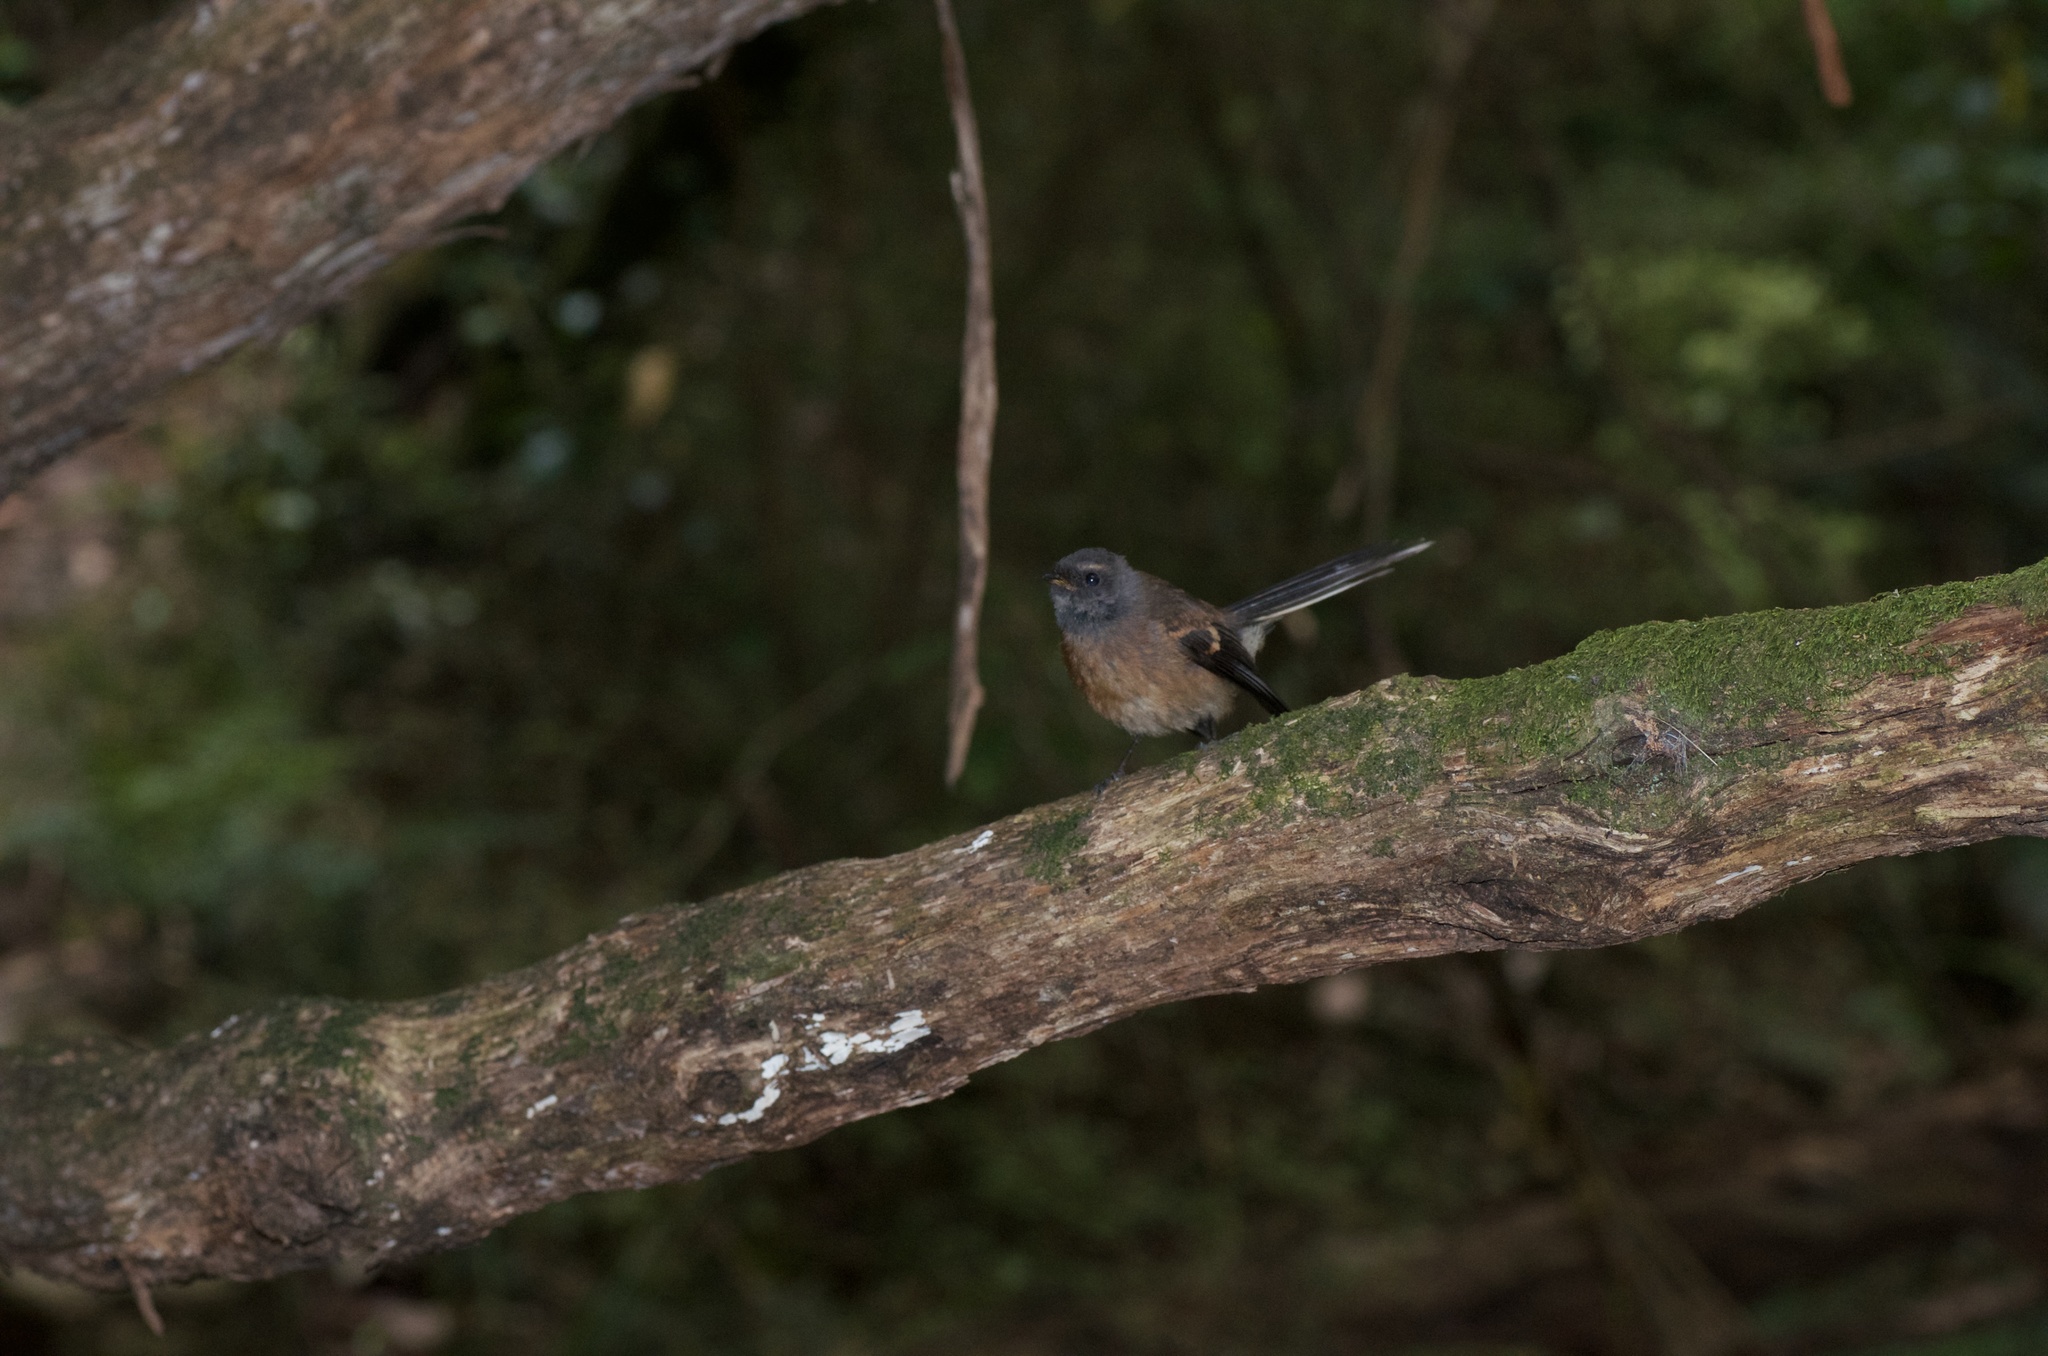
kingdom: Animalia
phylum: Chordata
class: Aves
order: Passeriformes
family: Rhipiduridae
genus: Rhipidura
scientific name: Rhipidura fuliginosa
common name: New zealand fantail
